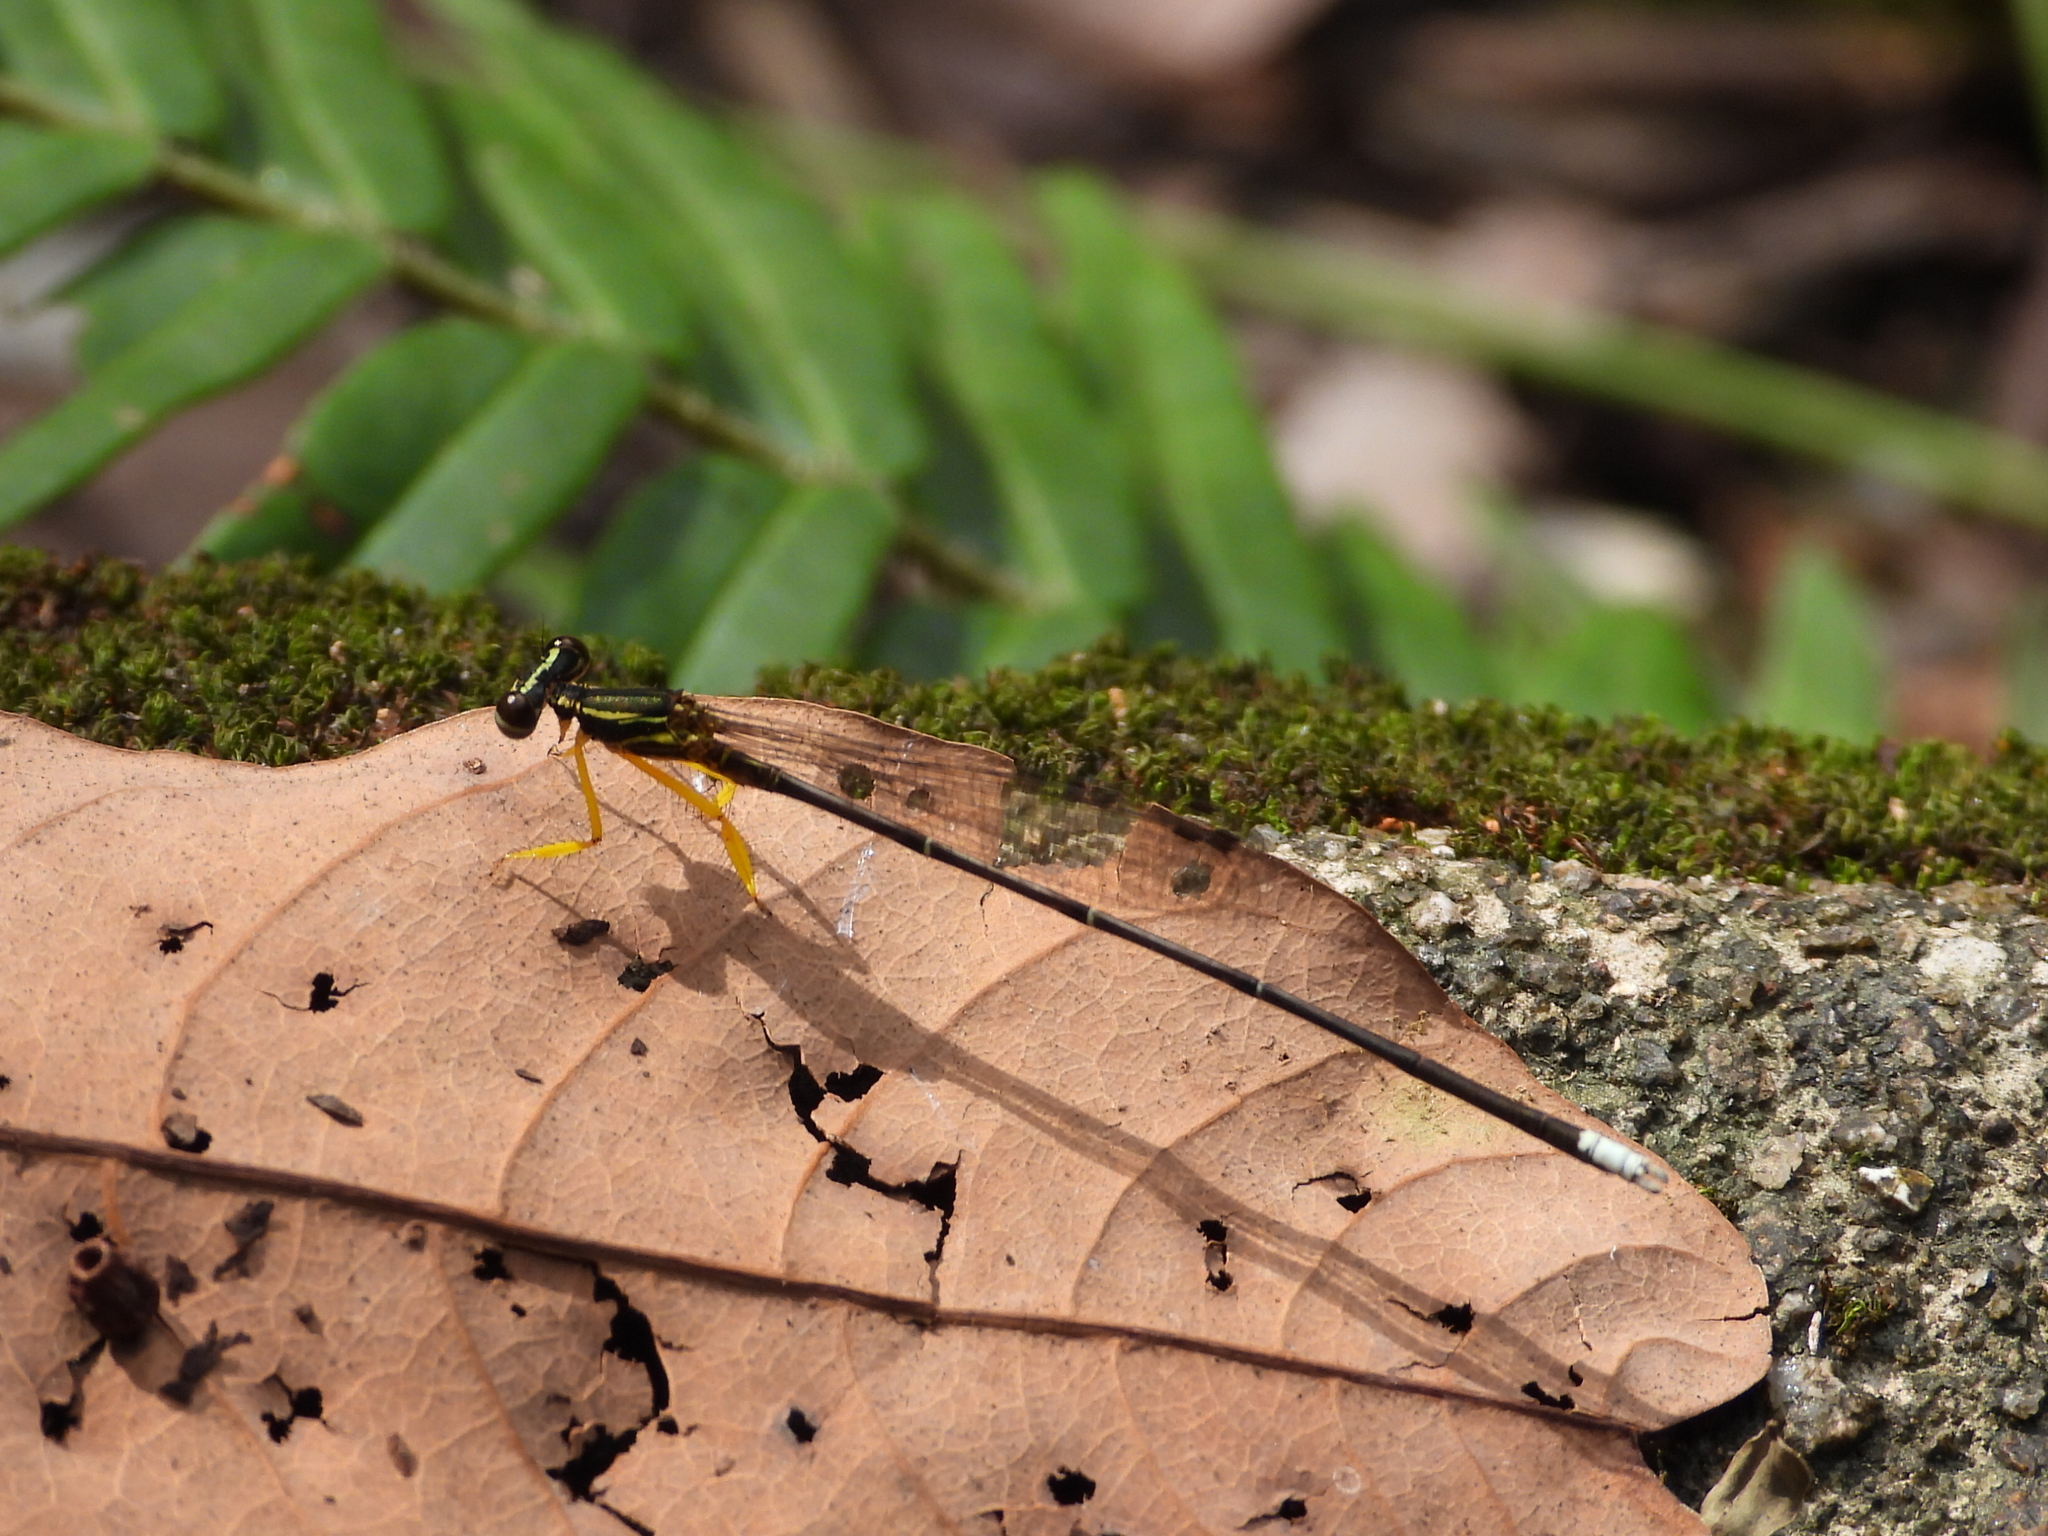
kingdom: Animalia
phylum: Arthropoda
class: Insecta
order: Odonata
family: Platycnemididae
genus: Copera
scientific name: Copera marginipes
